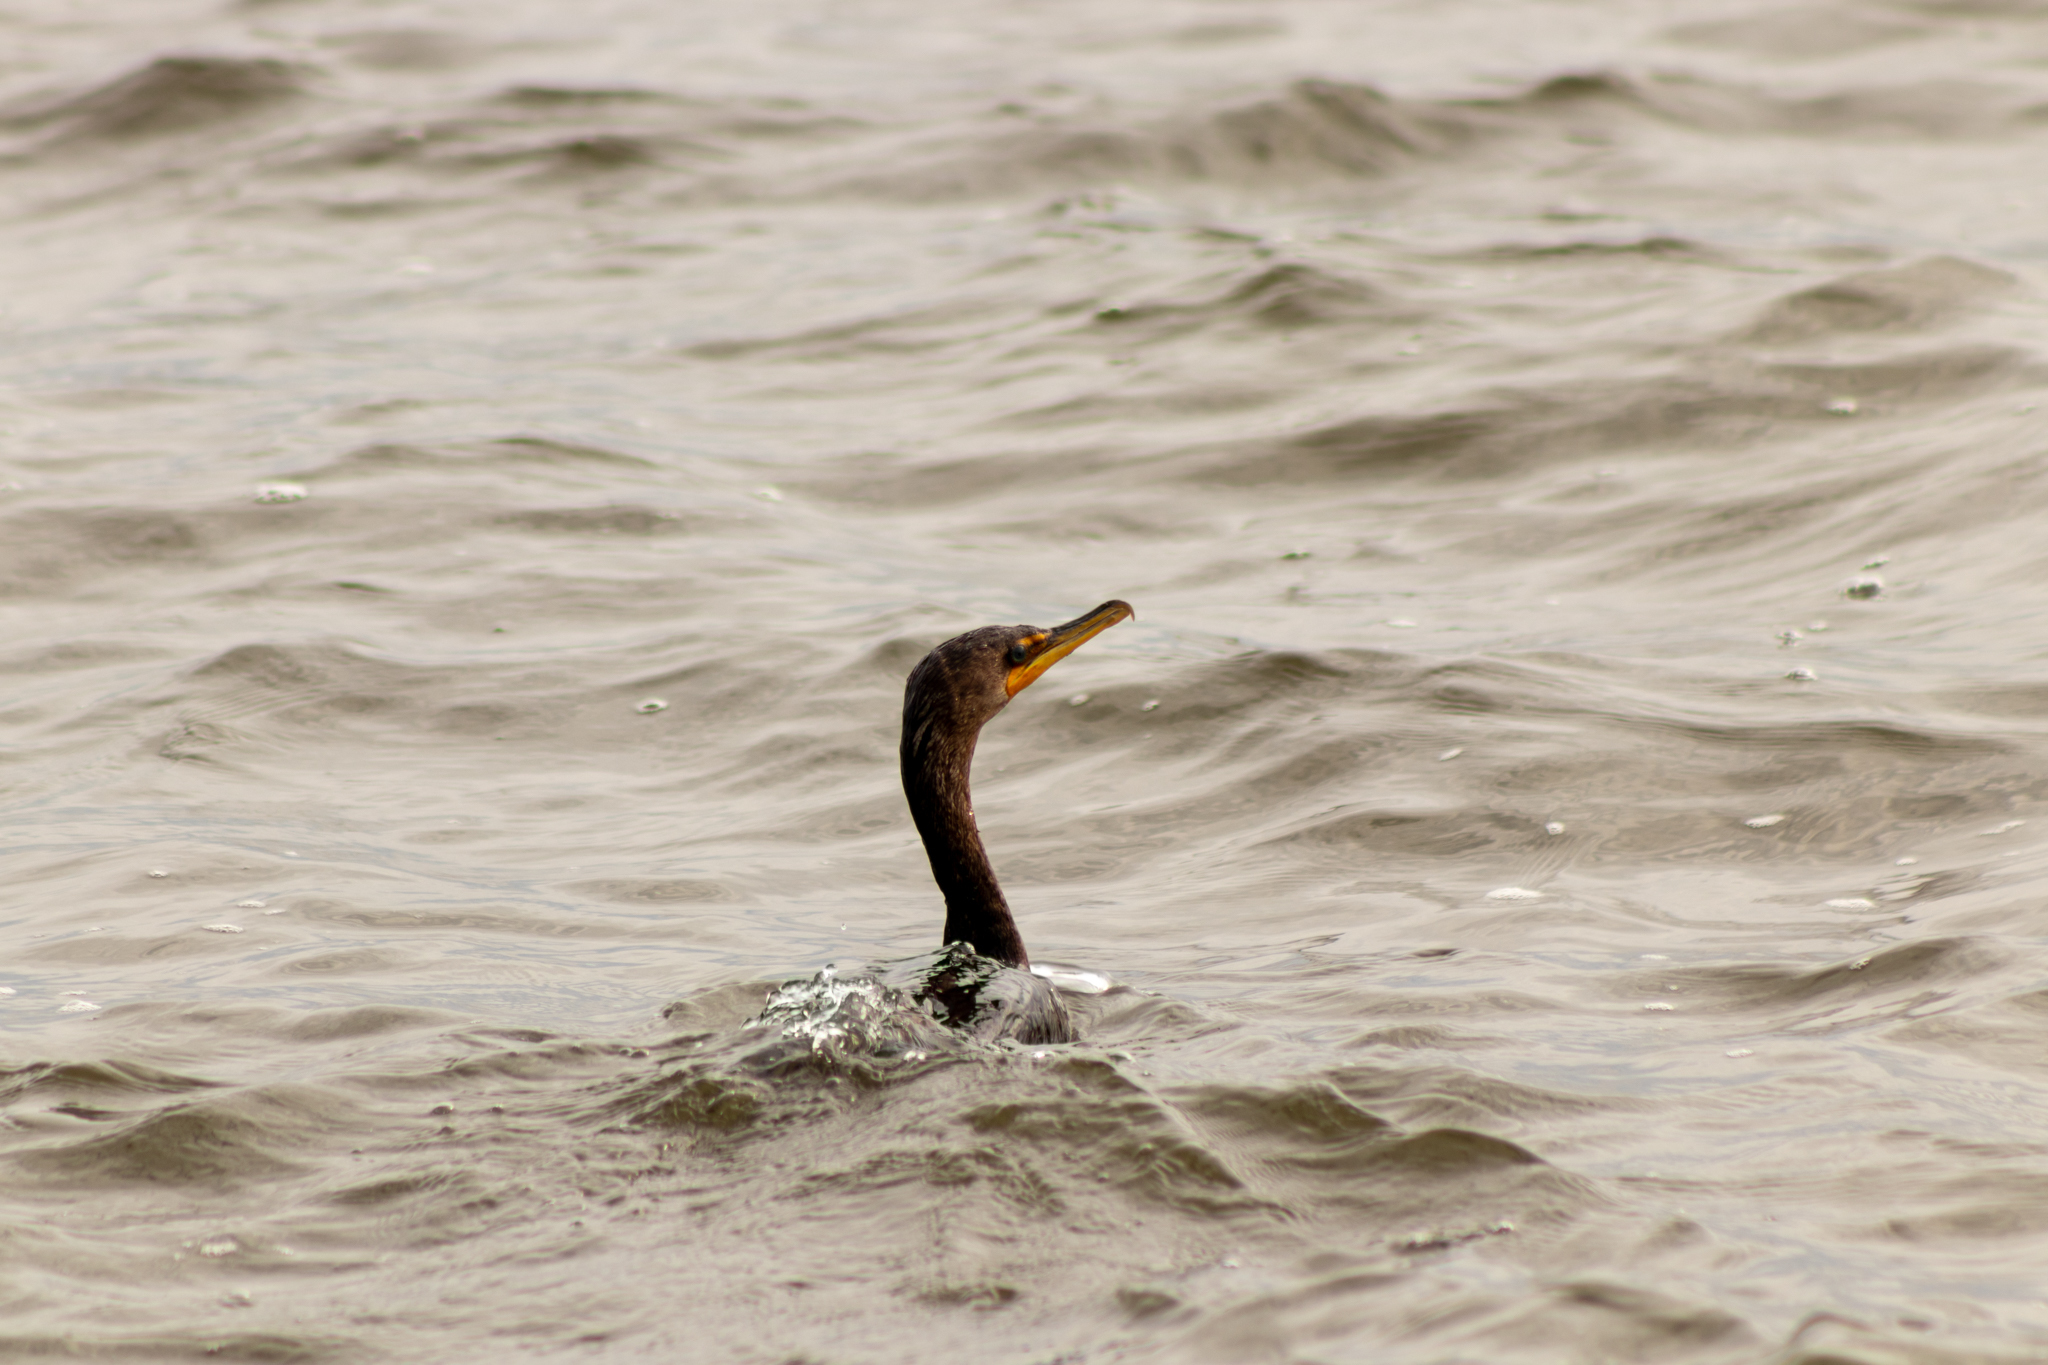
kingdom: Animalia
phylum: Chordata
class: Aves
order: Suliformes
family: Phalacrocoracidae
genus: Phalacrocorax
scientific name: Phalacrocorax auritus
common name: Double-crested cormorant
